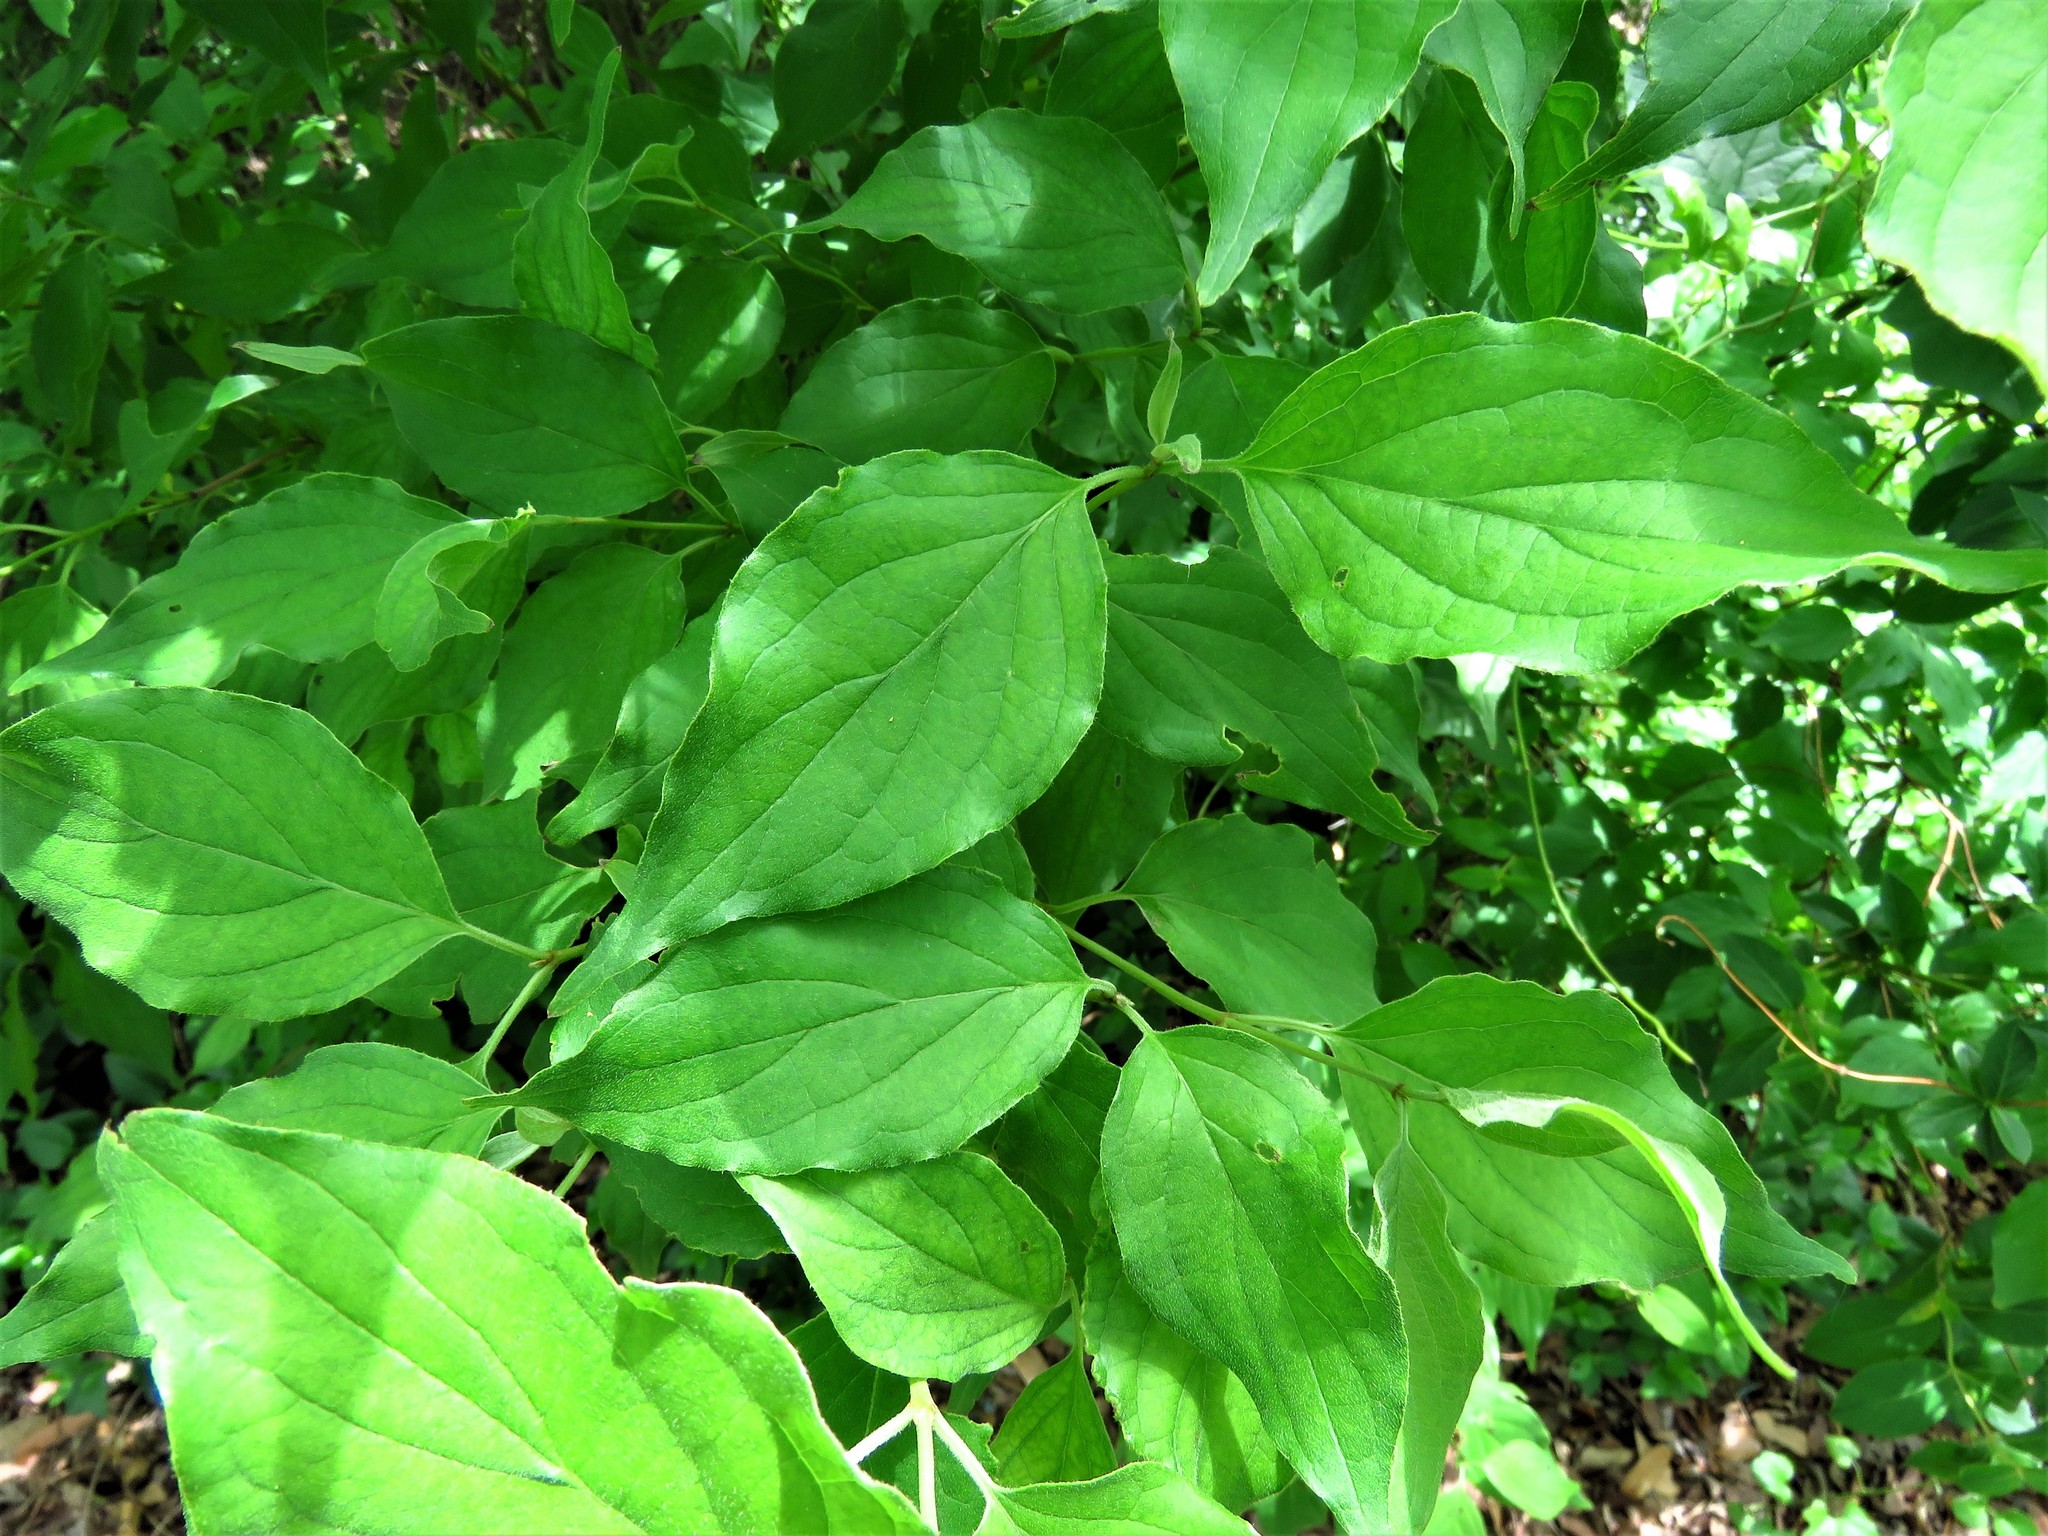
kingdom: Plantae
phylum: Tracheophyta
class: Magnoliopsida
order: Cornales
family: Cornaceae
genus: Cornus
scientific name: Cornus drummondii
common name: Rough-leaf dogwood
